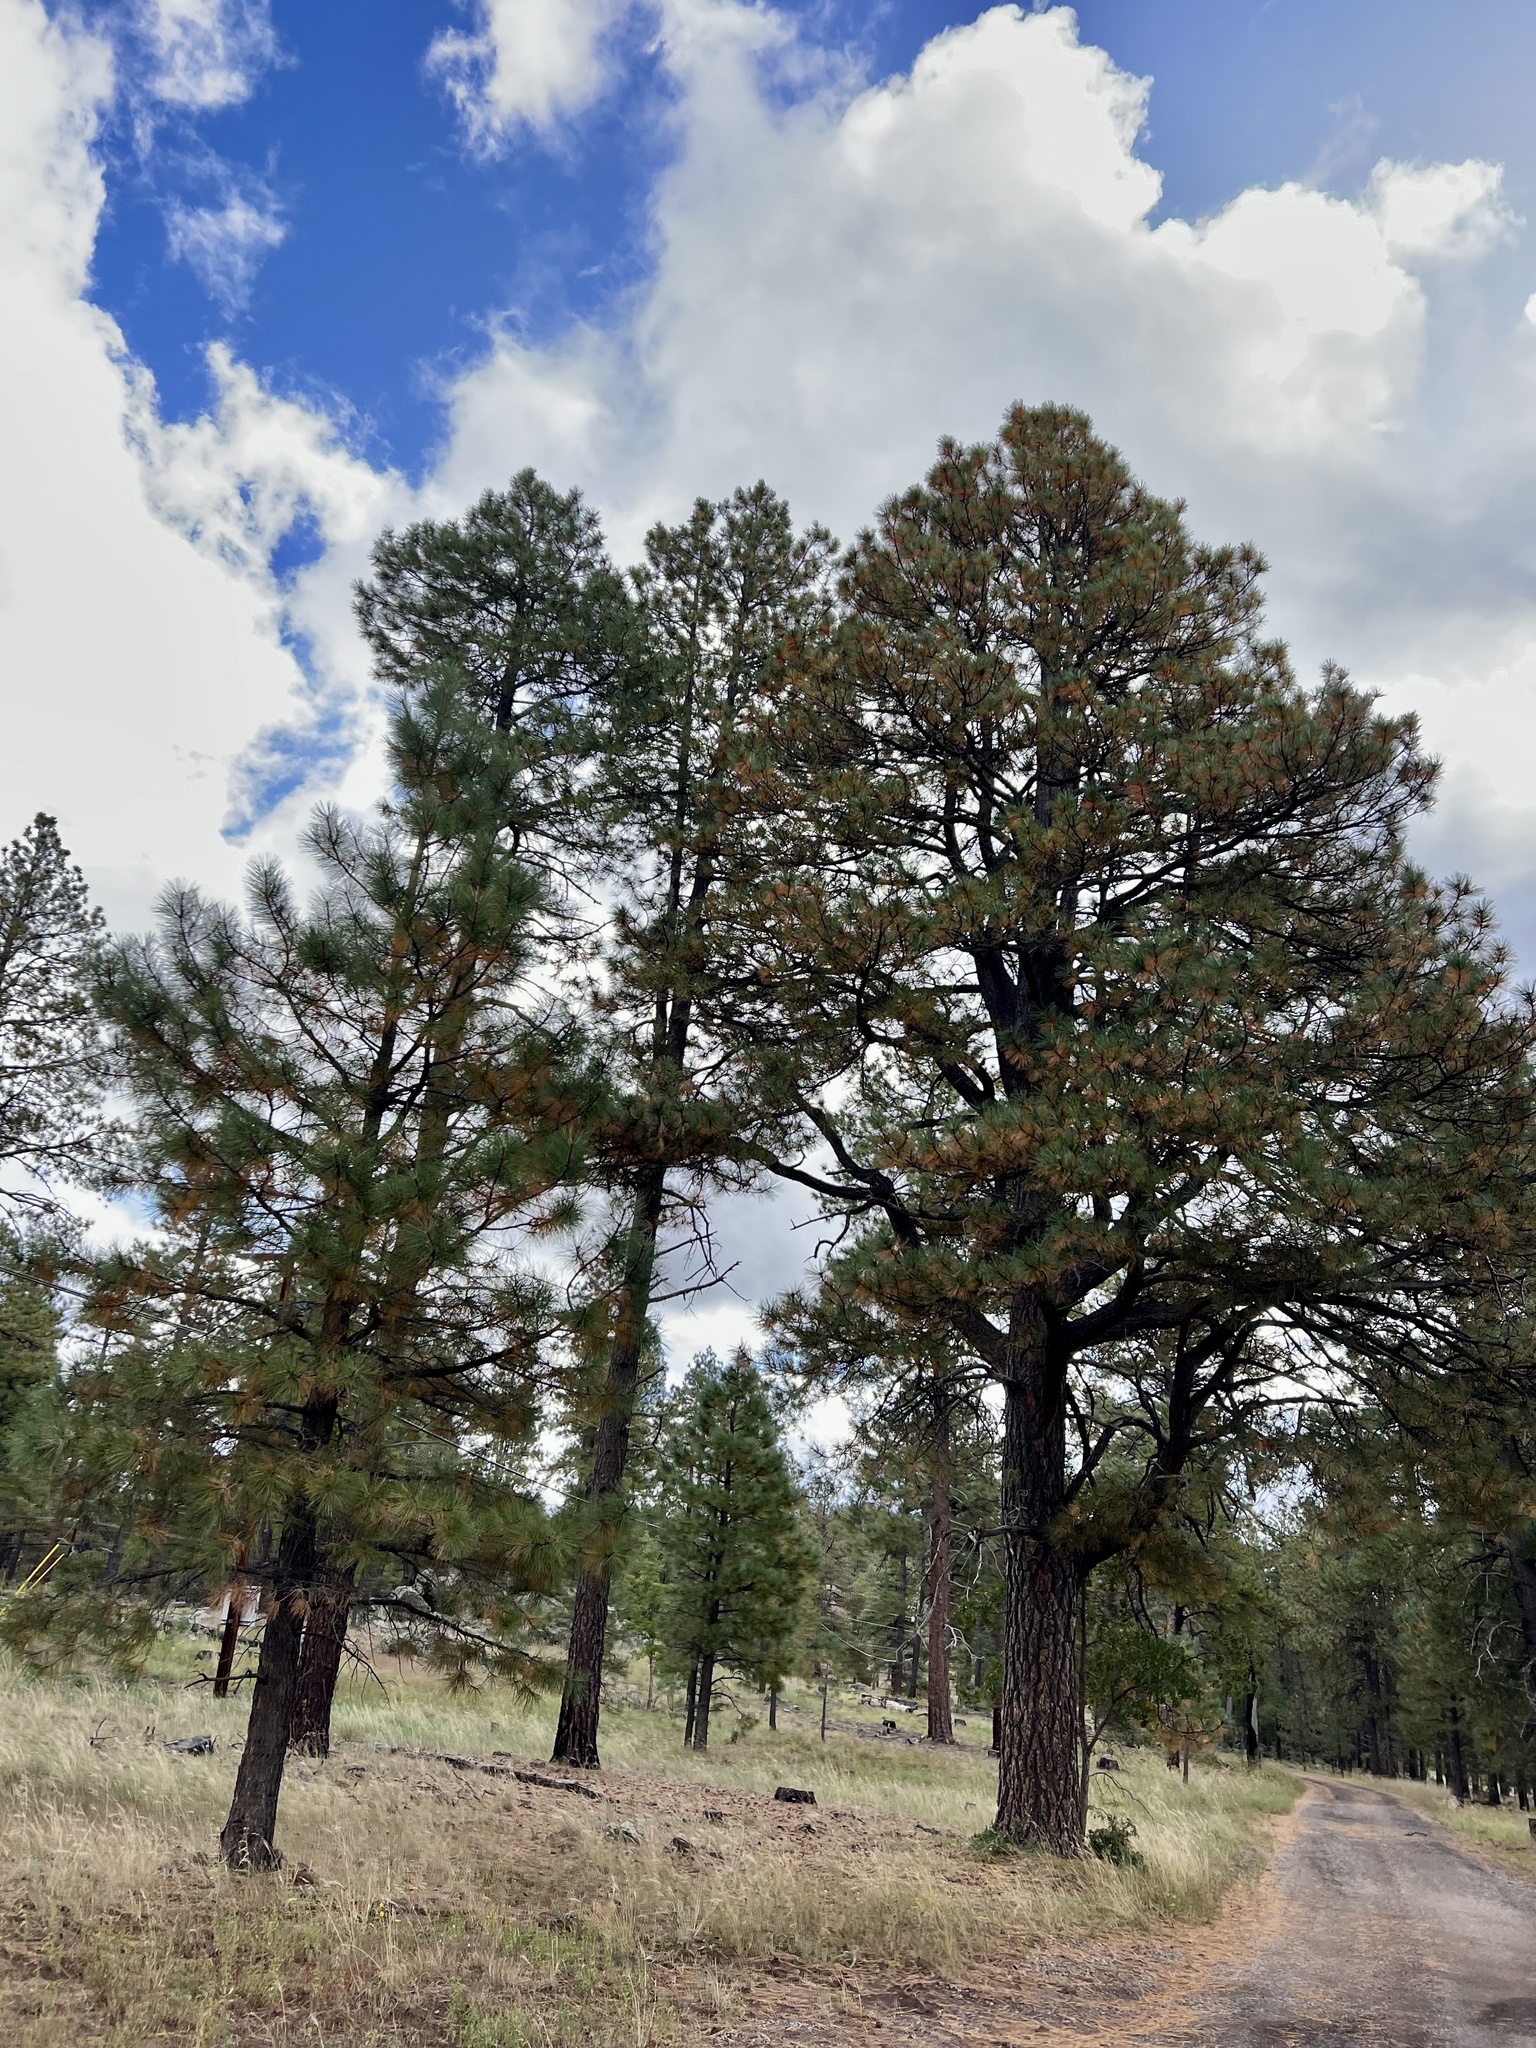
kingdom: Plantae
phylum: Tracheophyta
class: Pinopsida
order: Pinales
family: Pinaceae
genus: Pinus
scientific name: Pinus ponderosa
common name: Western yellow-pine
